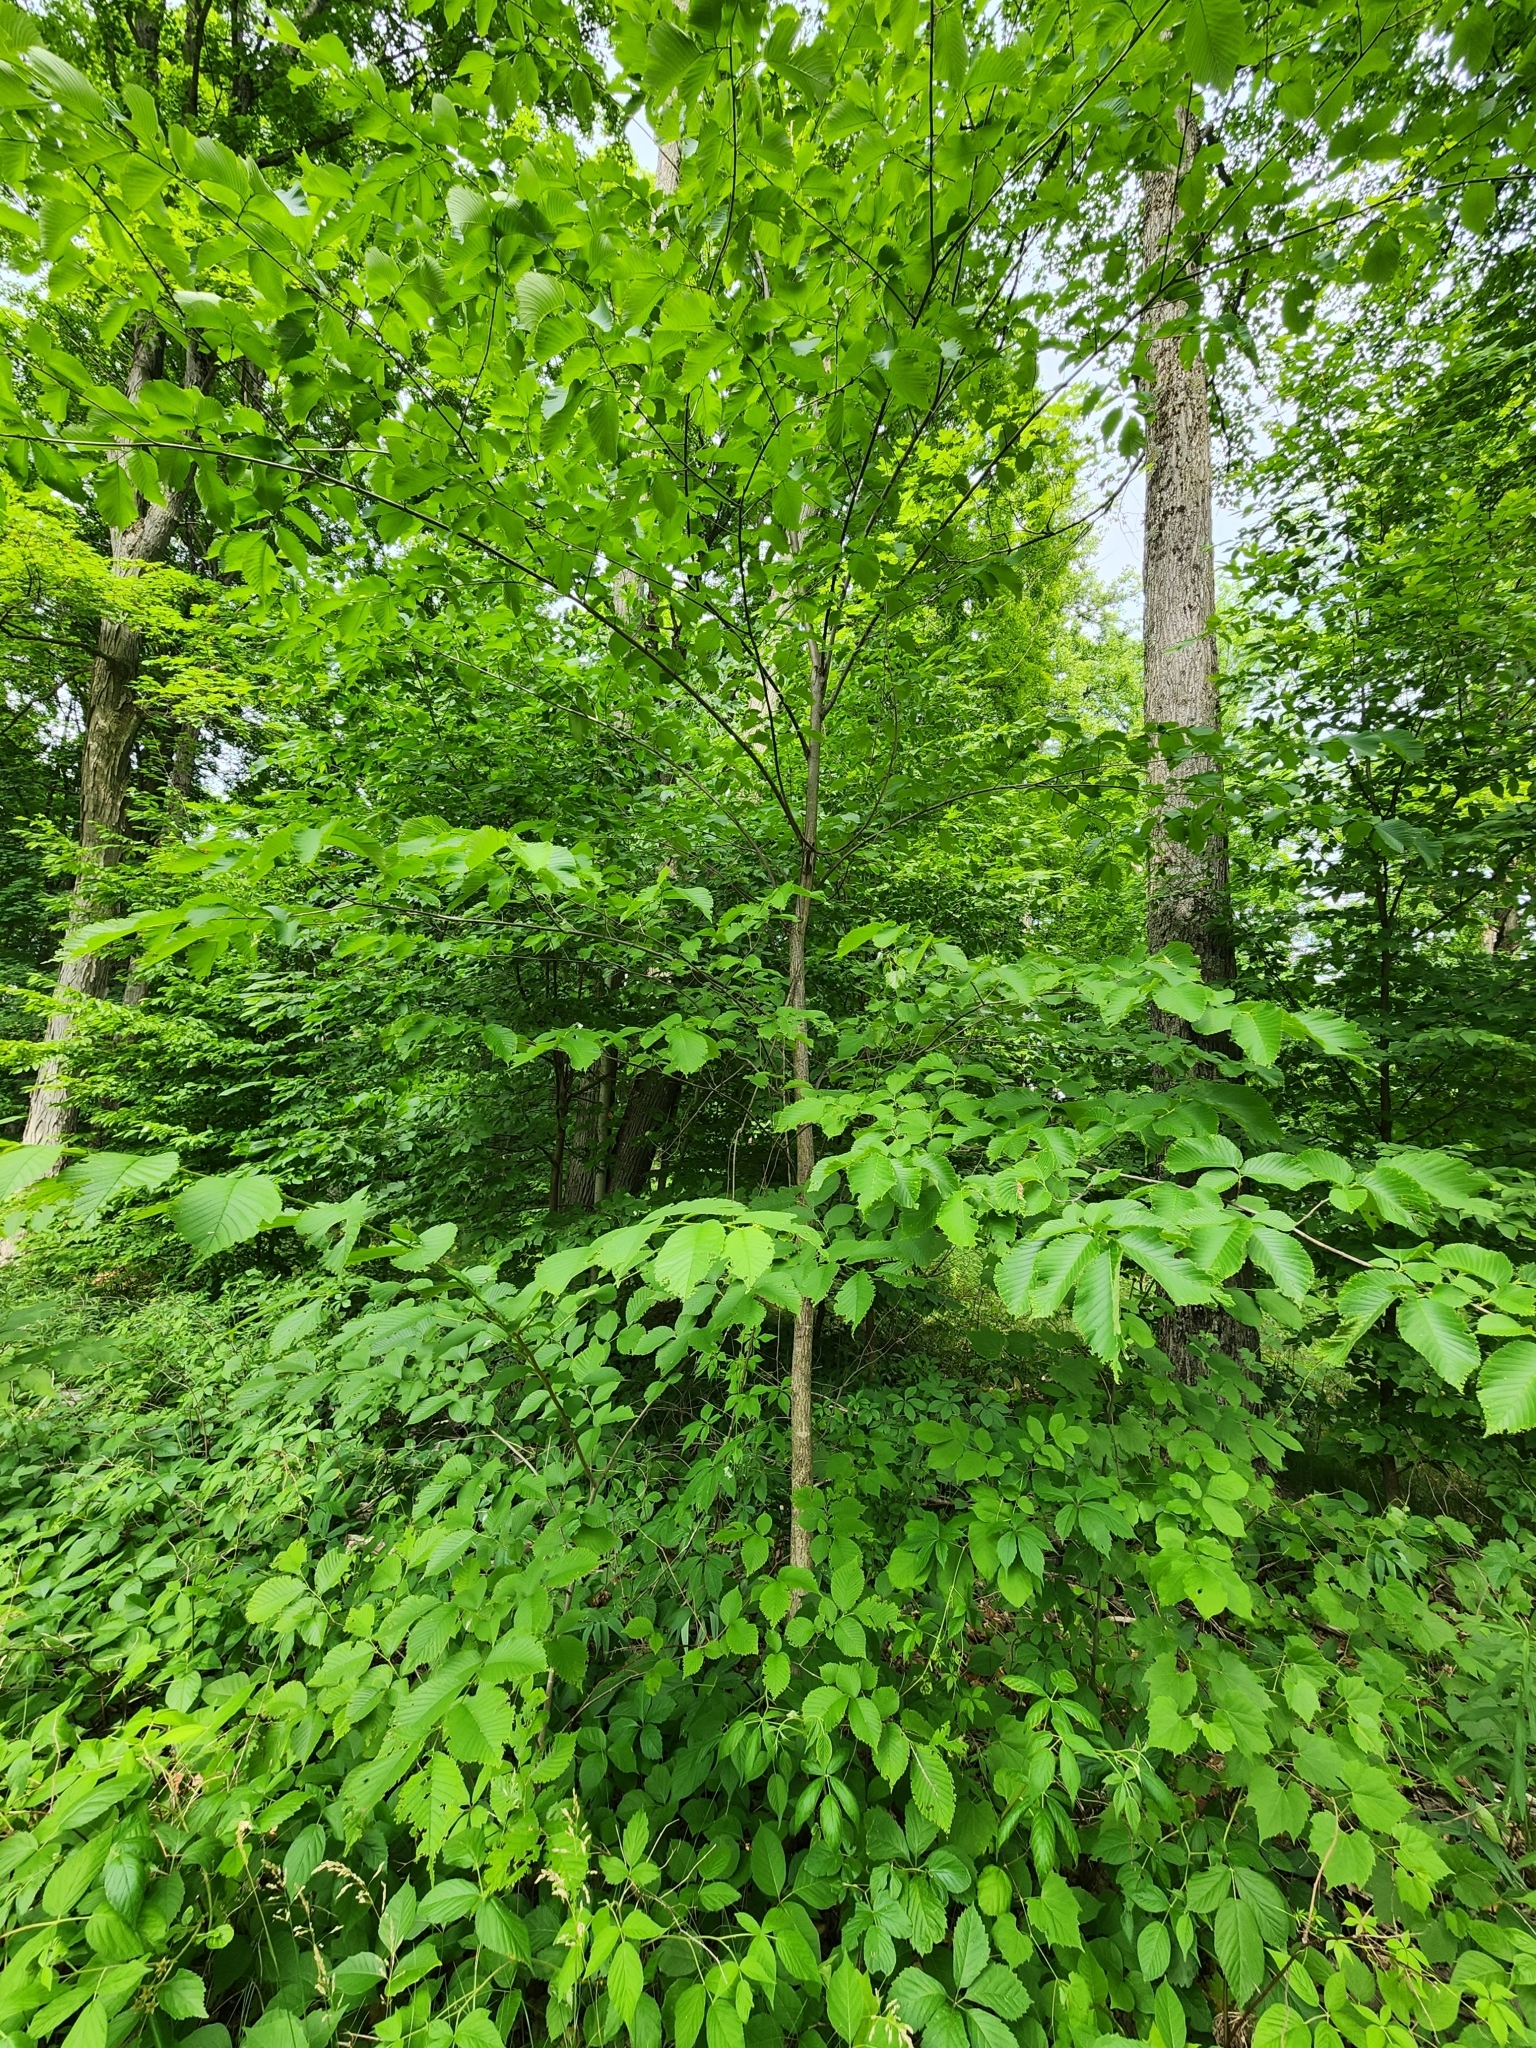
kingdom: Plantae
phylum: Tracheophyta
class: Magnoliopsida
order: Rosales
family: Ulmaceae
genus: Ulmus
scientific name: Ulmus rubra
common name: Slippery elm
